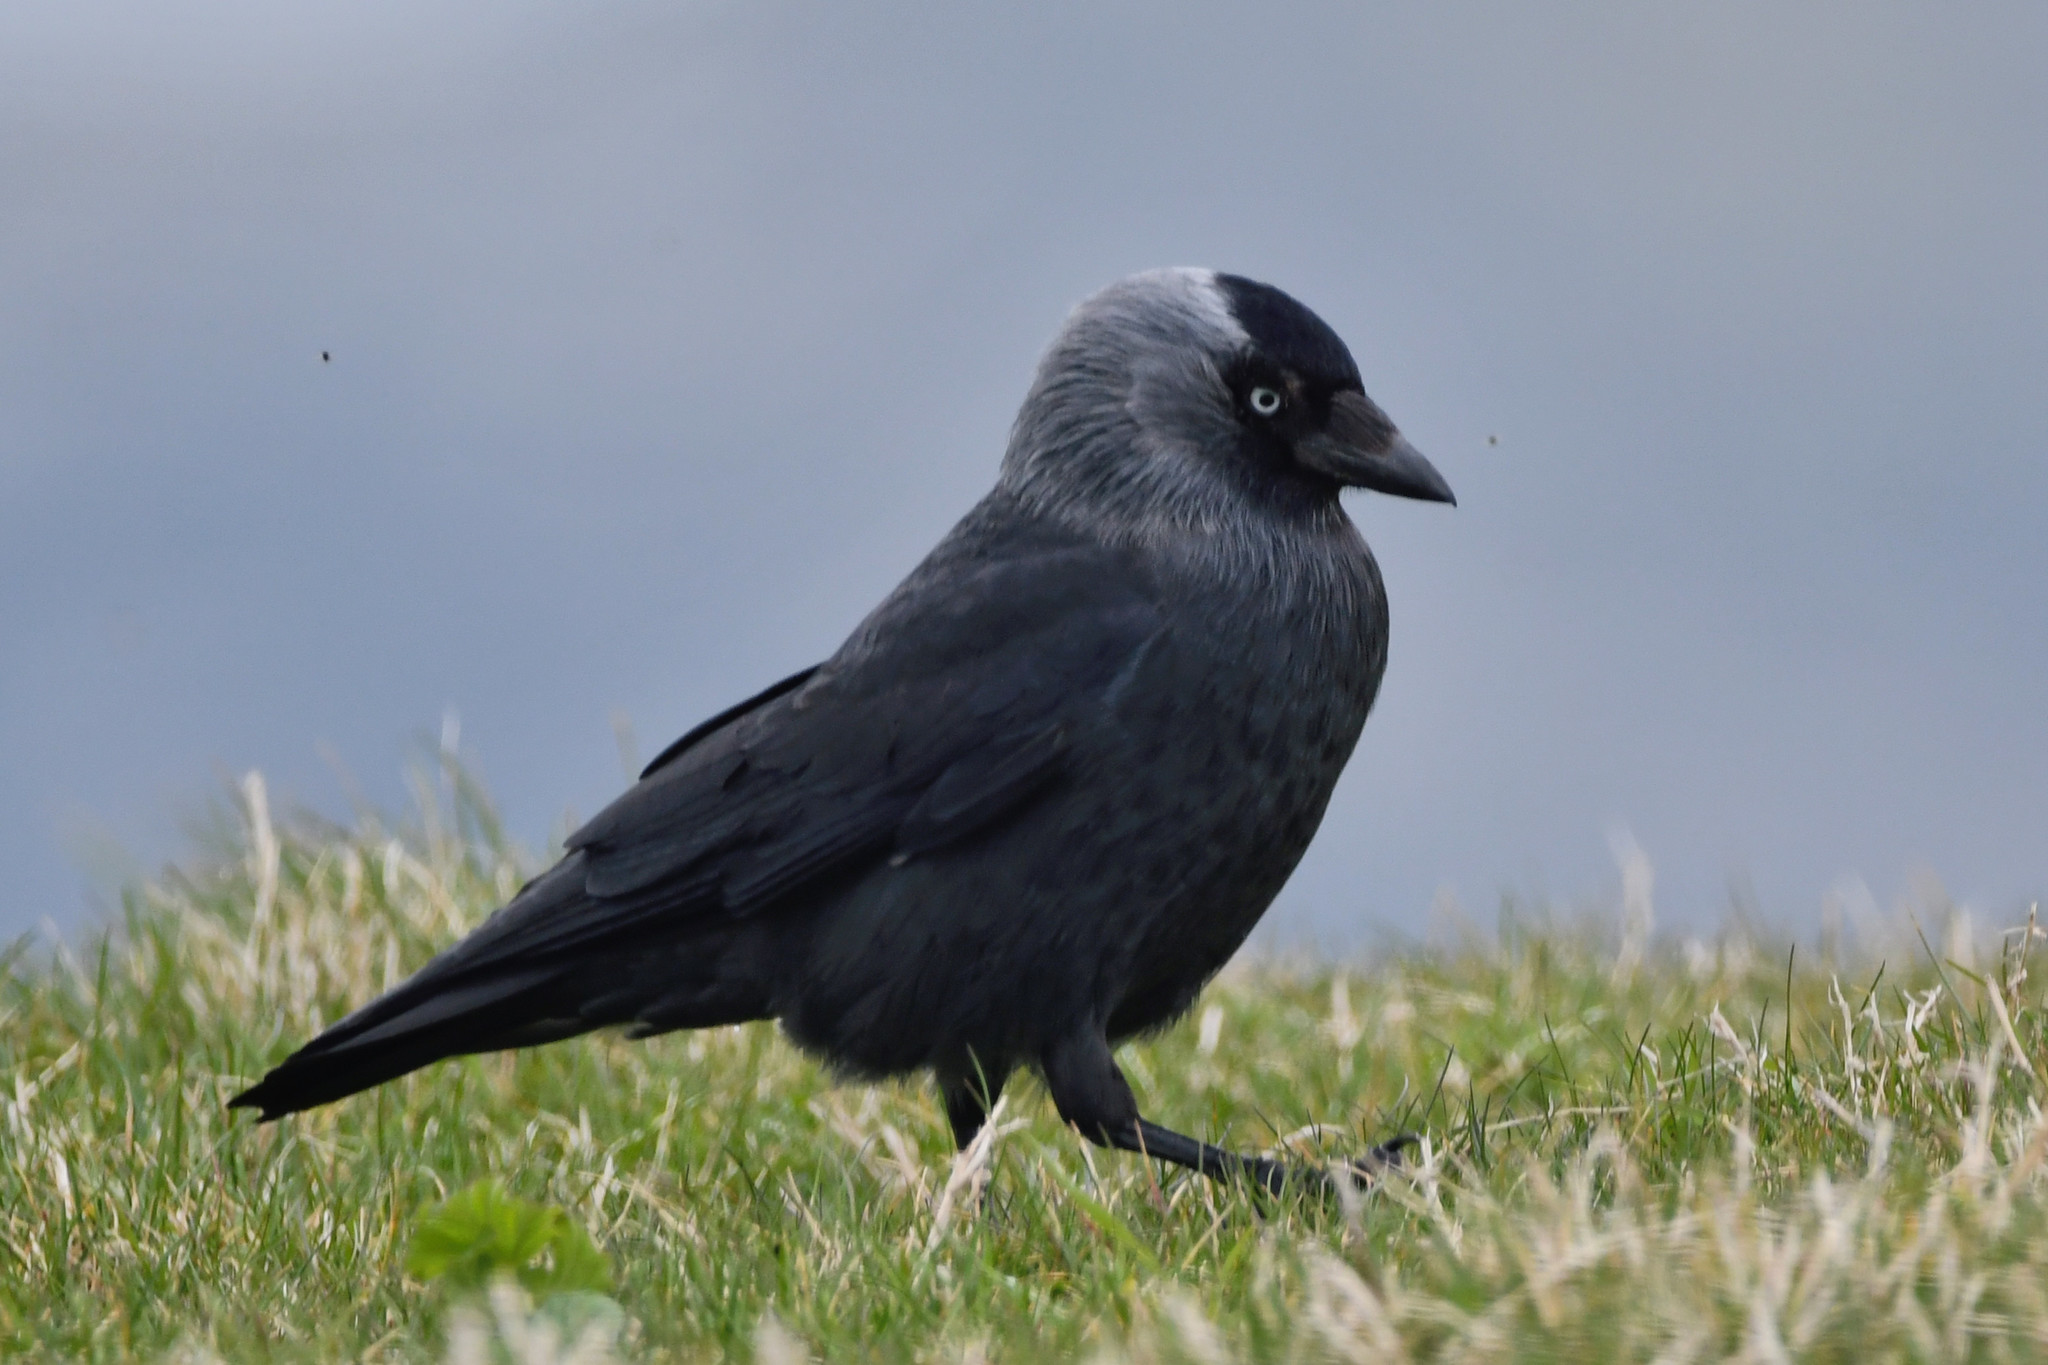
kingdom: Animalia
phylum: Chordata
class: Aves
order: Passeriformes
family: Corvidae
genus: Coloeus
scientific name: Coloeus monedula
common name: Western jackdaw
